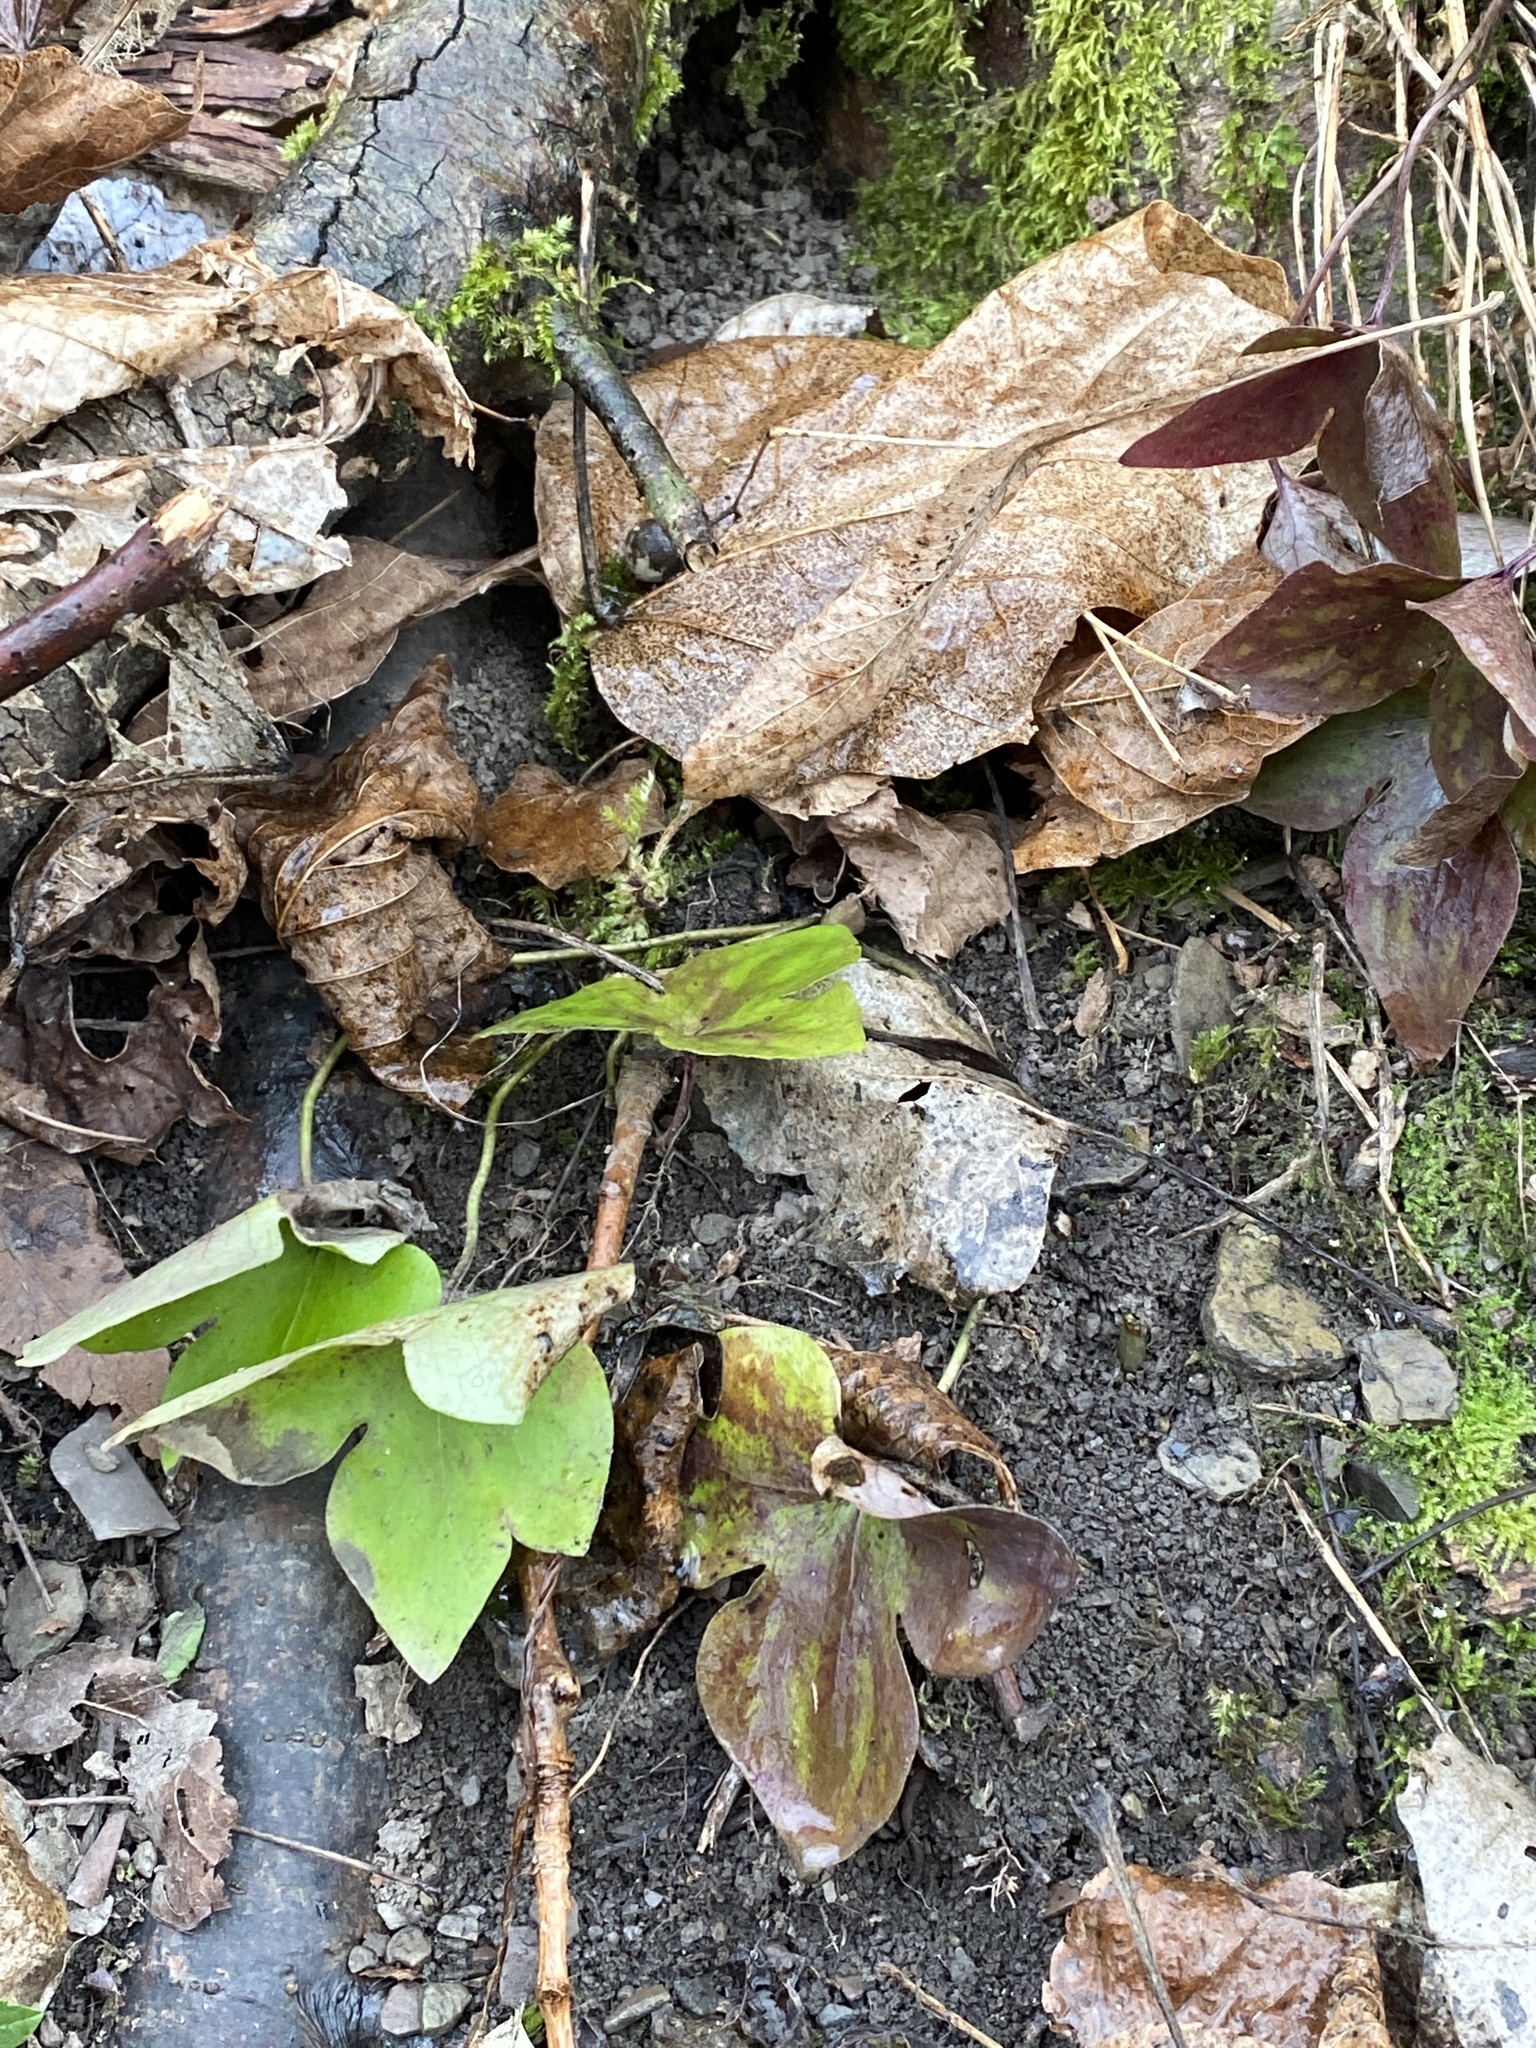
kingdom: Plantae
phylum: Tracheophyta
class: Magnoliopsida
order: Ranunculales
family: Ranunculaceae
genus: Hepatica
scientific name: Hepatica acutiloba
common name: Sharp-lobed hepatica
